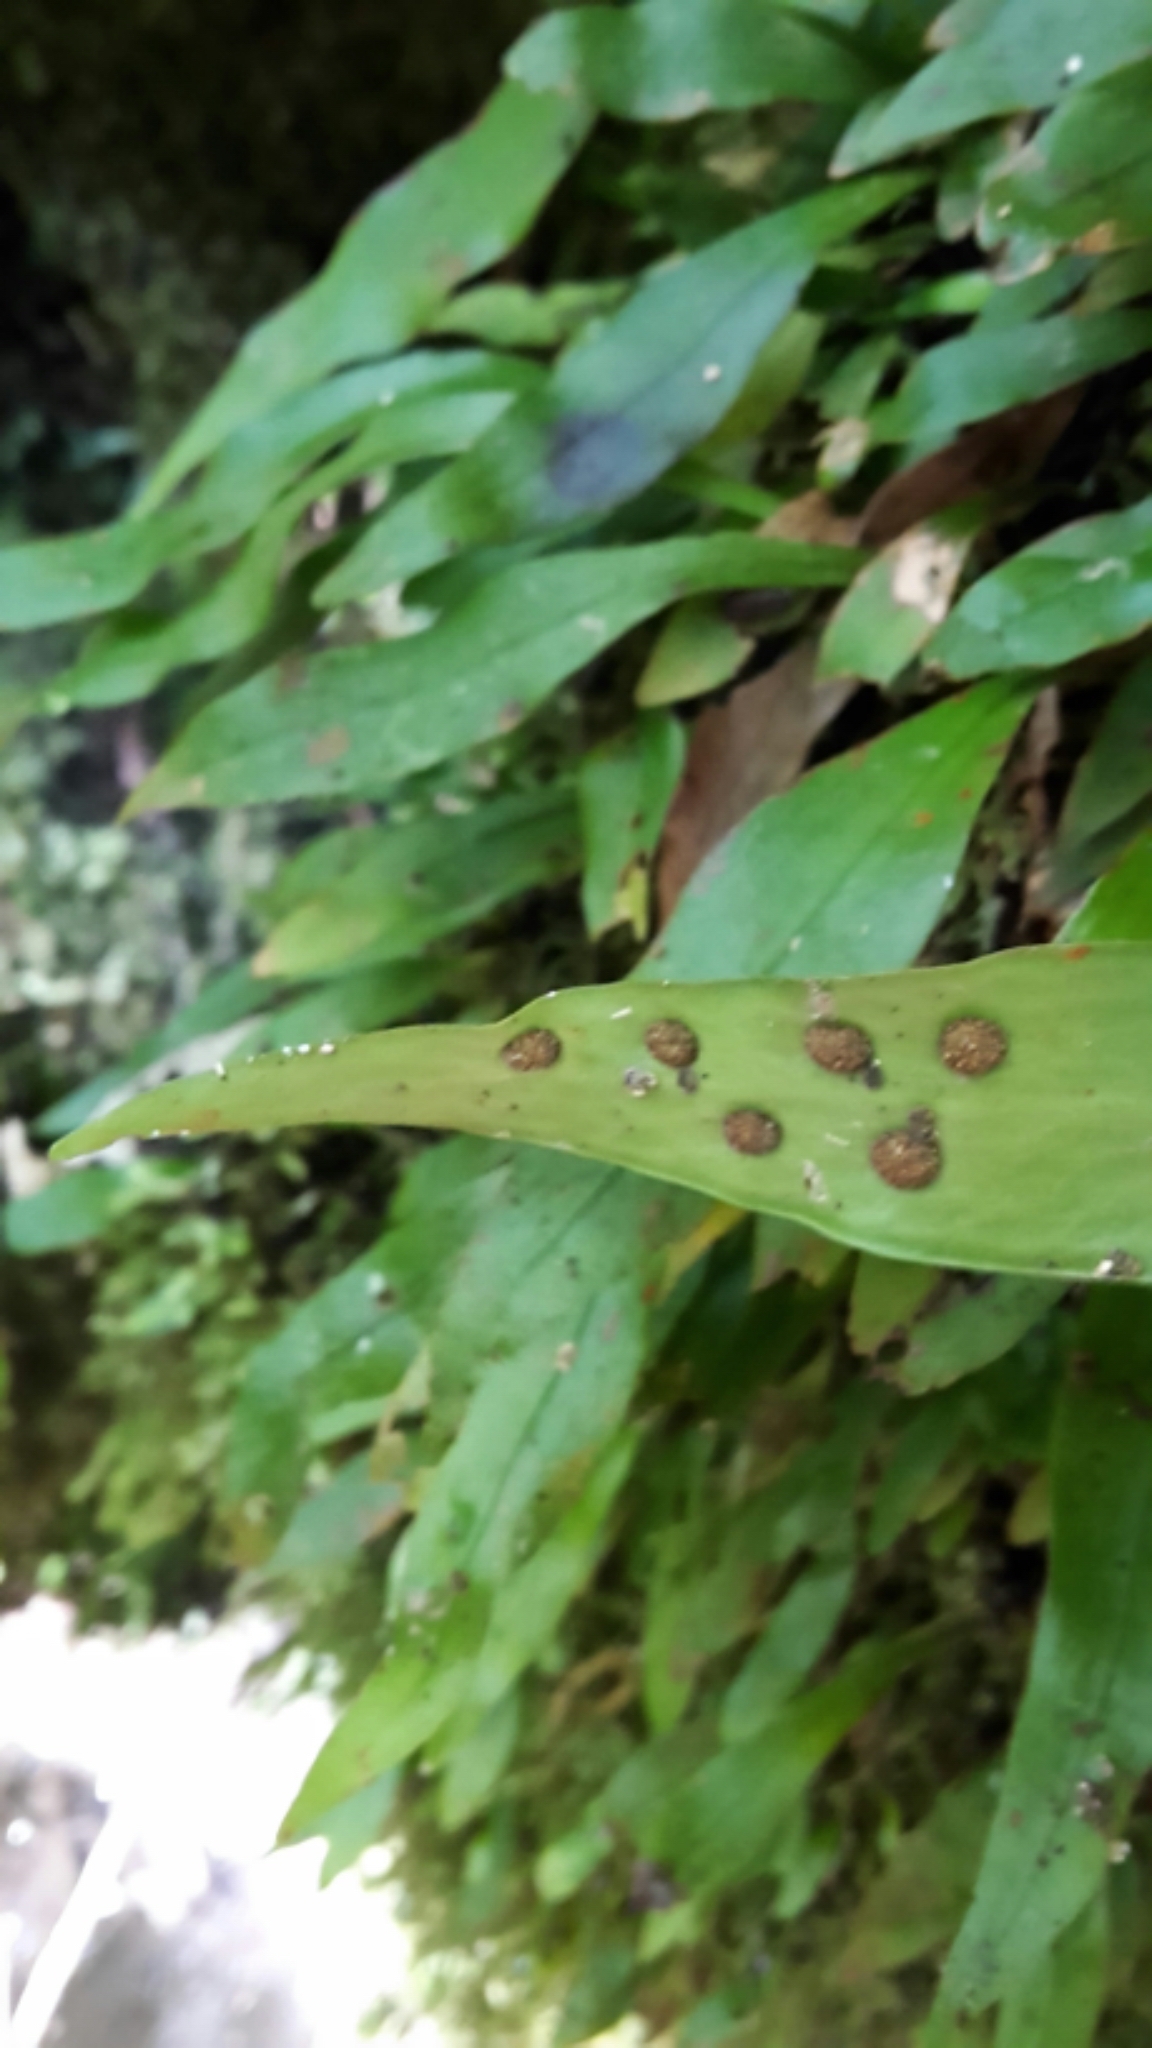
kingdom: Plantae
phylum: Tracheophyta
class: Polypodiopsida
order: Polypodiales
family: Polypodiaceae
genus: Loxogramme
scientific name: Loxogramme dictyopteris
